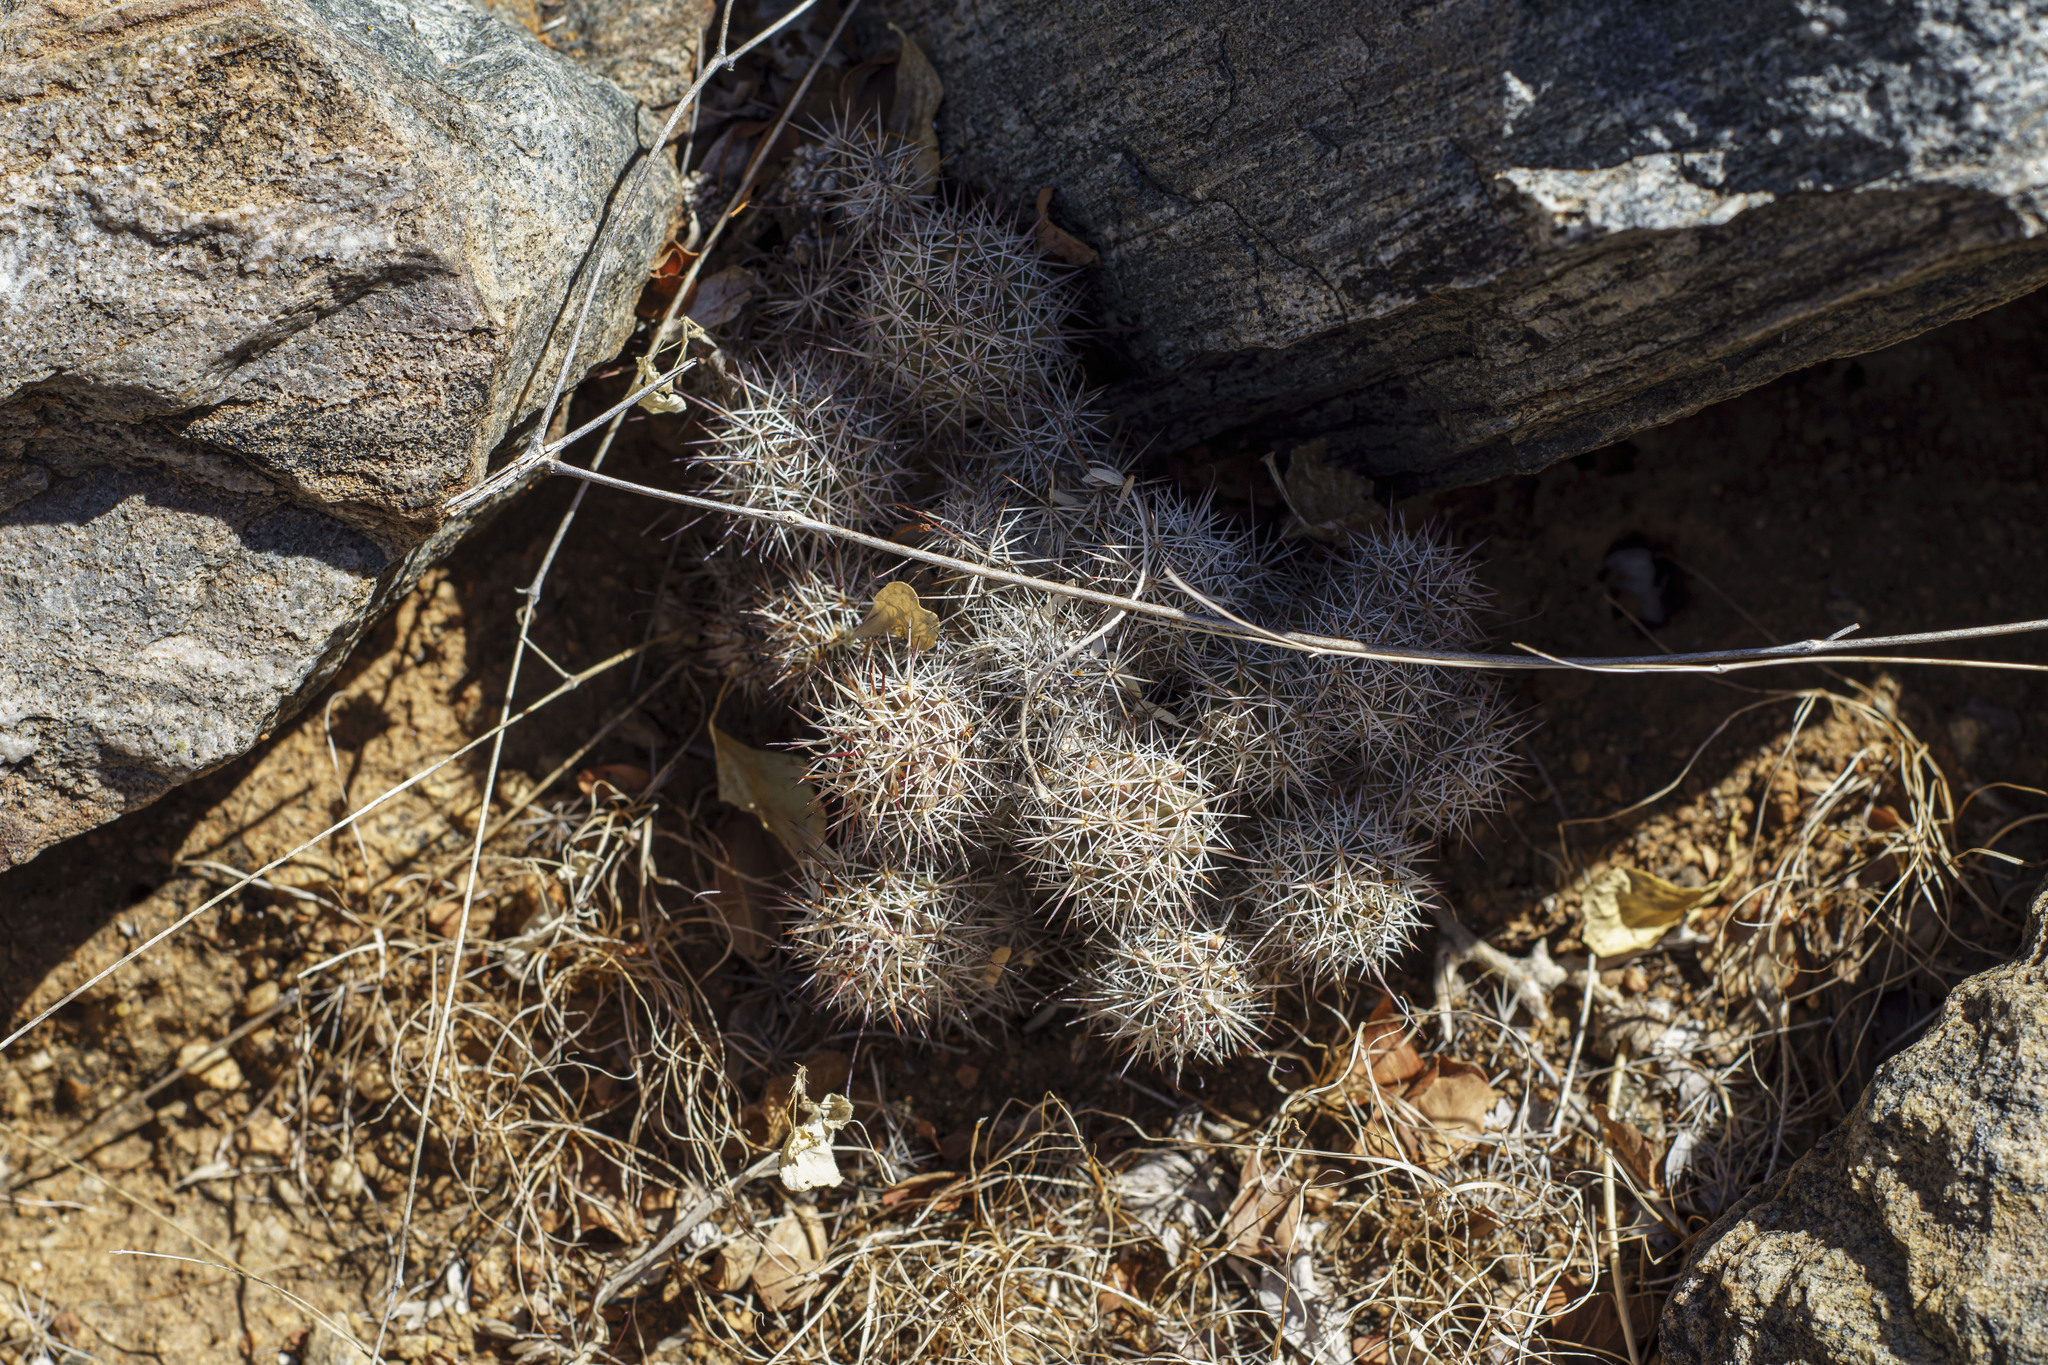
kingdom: Plantae
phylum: Tracheophyta
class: Magnoliopsida
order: Caryophyllales
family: Cactaceae
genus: Cochemiea
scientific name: Cochemiea fraileana
